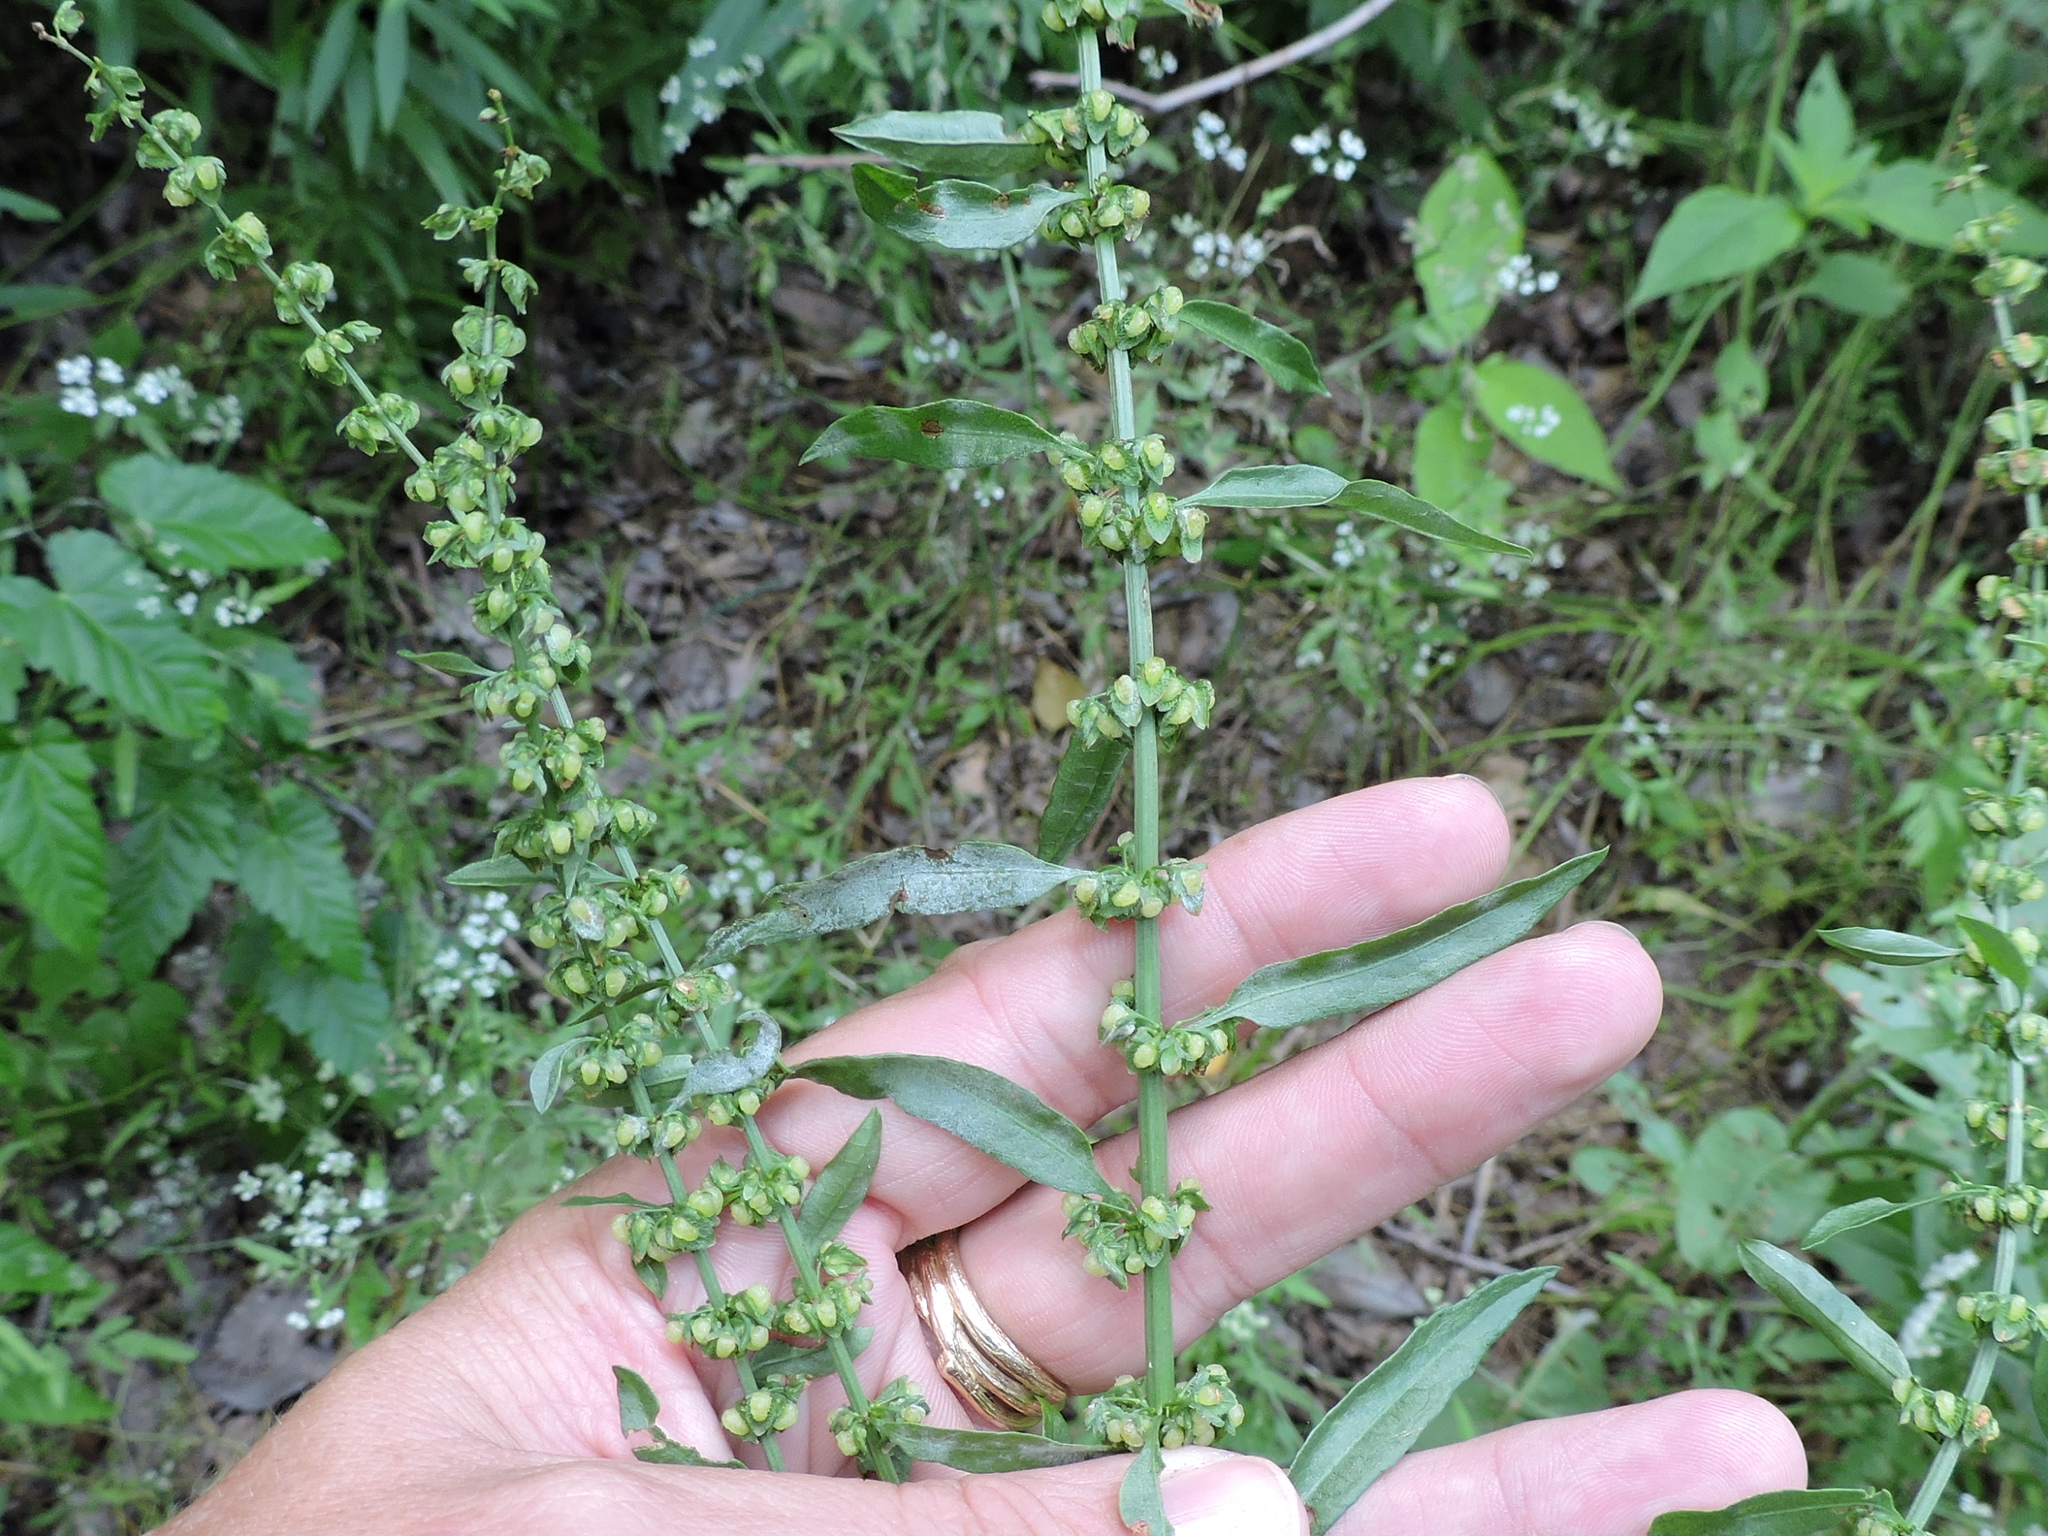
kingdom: Plantae
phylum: Tracheophyta
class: Magnoliopsida
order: Caryophyllales
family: Polygonaceae
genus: Rumex
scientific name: Rumex pulcher
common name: Fiddle dock
